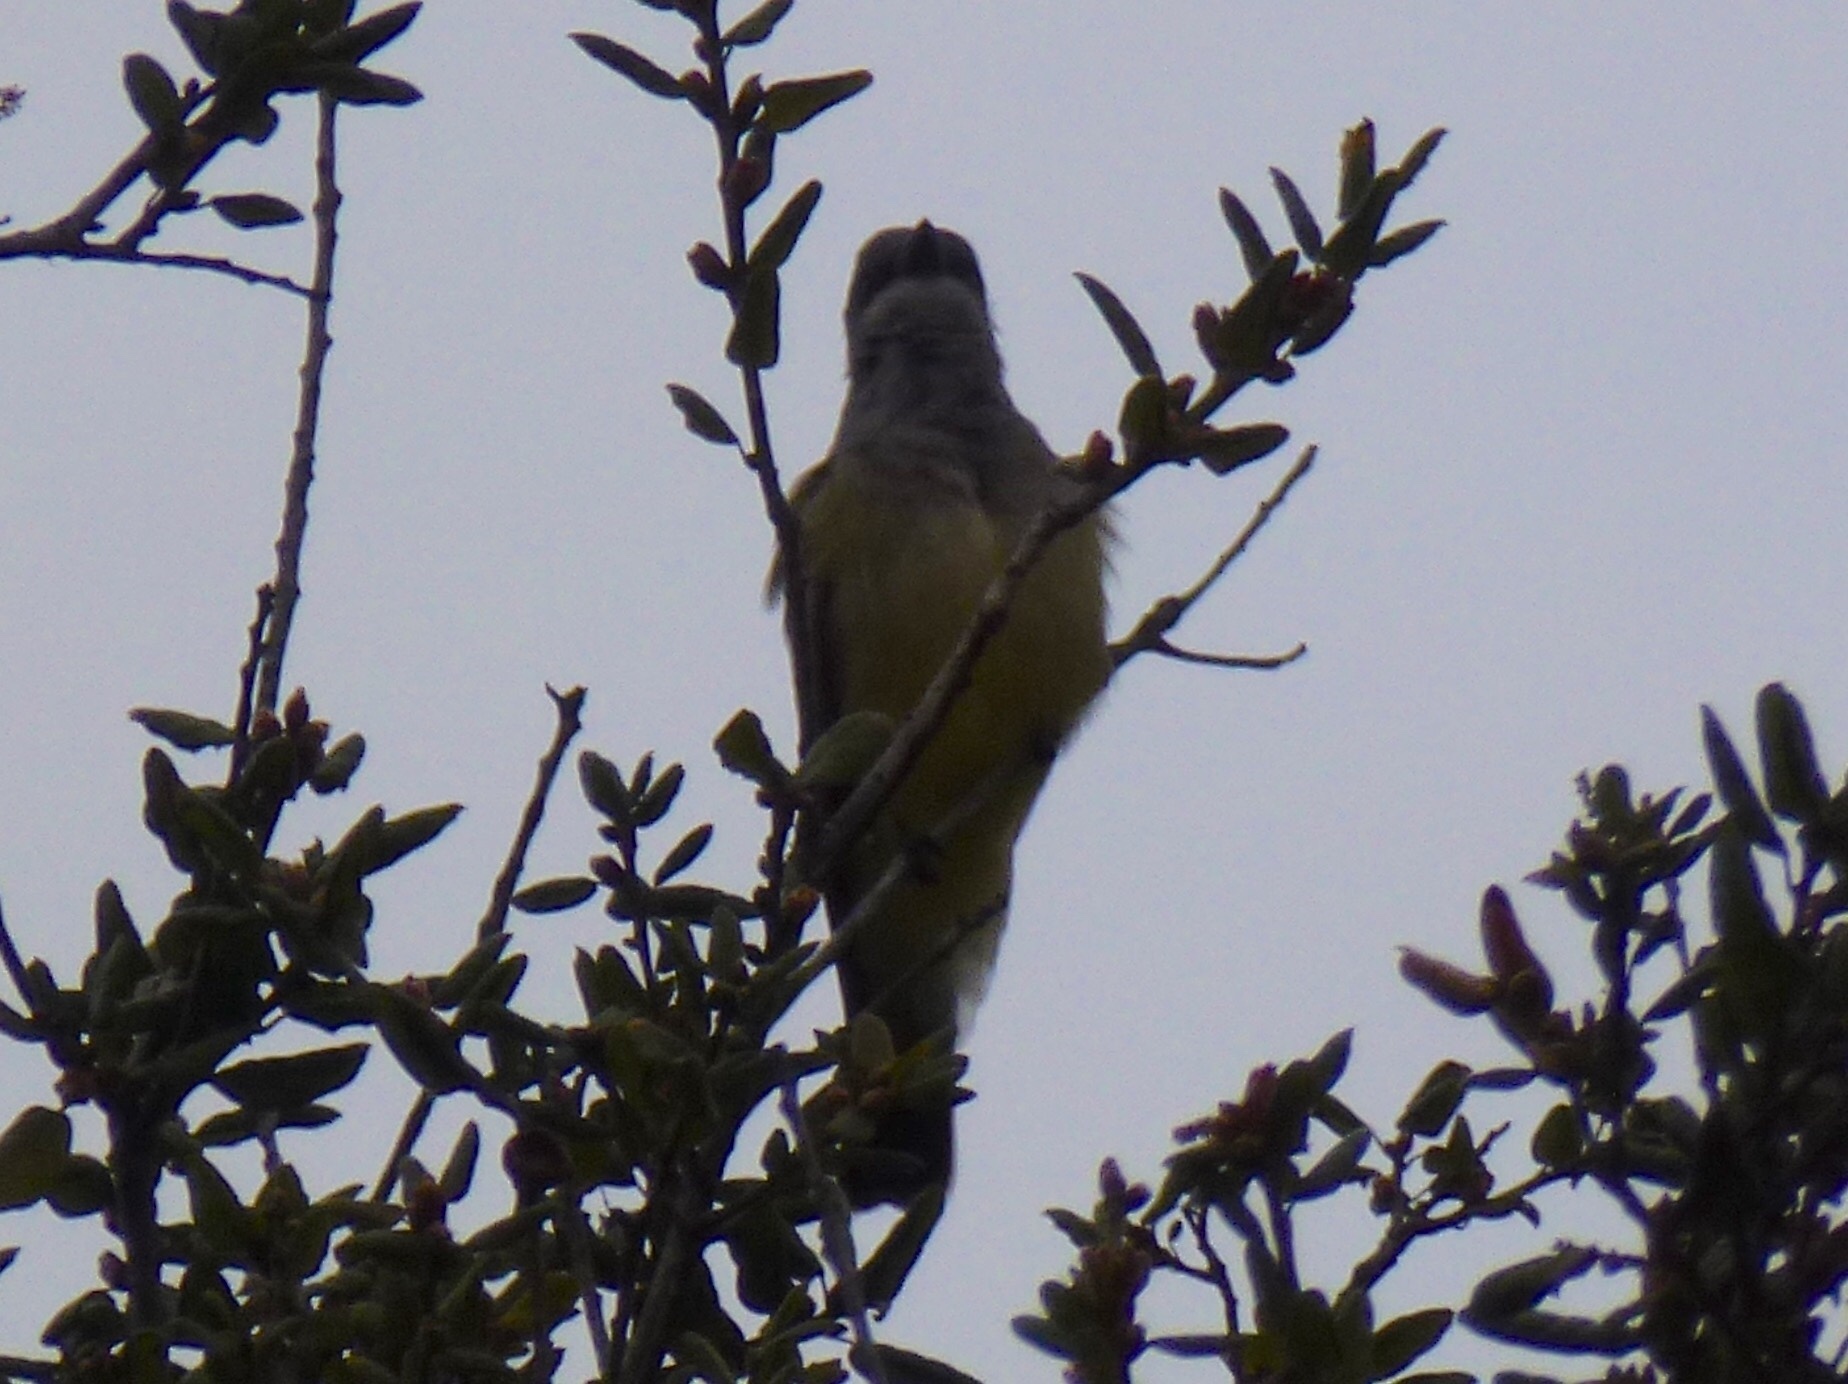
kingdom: Animalia
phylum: Chordata
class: Aves
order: Passeriformes
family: Tyrannidae
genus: Tyrannus
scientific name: Tyrannus vociferans
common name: Cassin's kingbird
